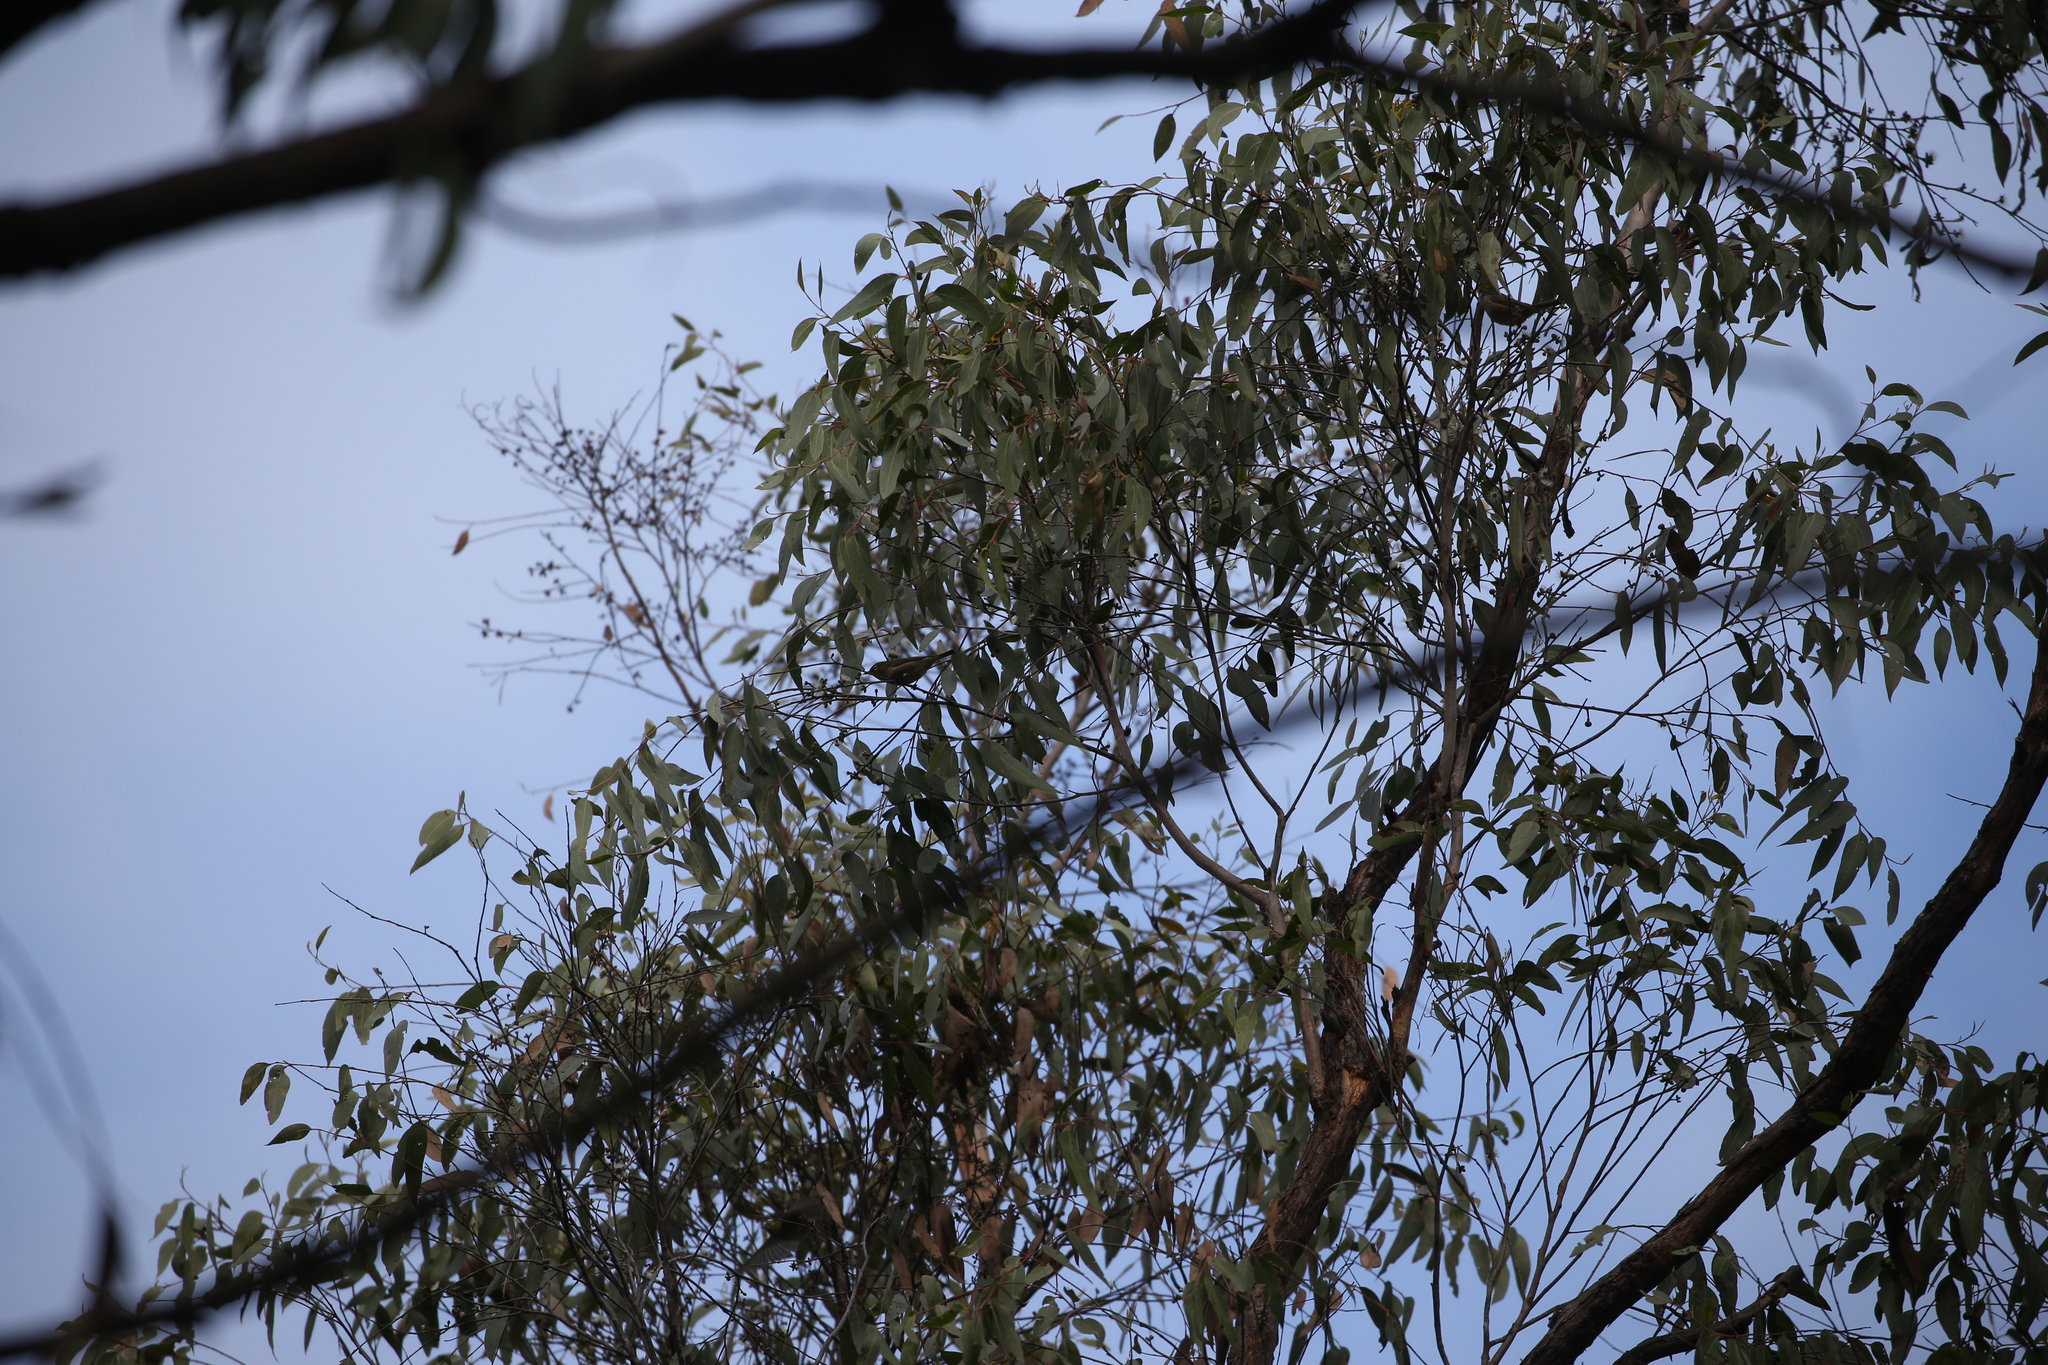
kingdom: Animalia
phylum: Chordata
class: Aves
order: Passeriformes
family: Zosteropidae
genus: Zosterops
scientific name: Zosterops lateralis
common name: Silvereye
